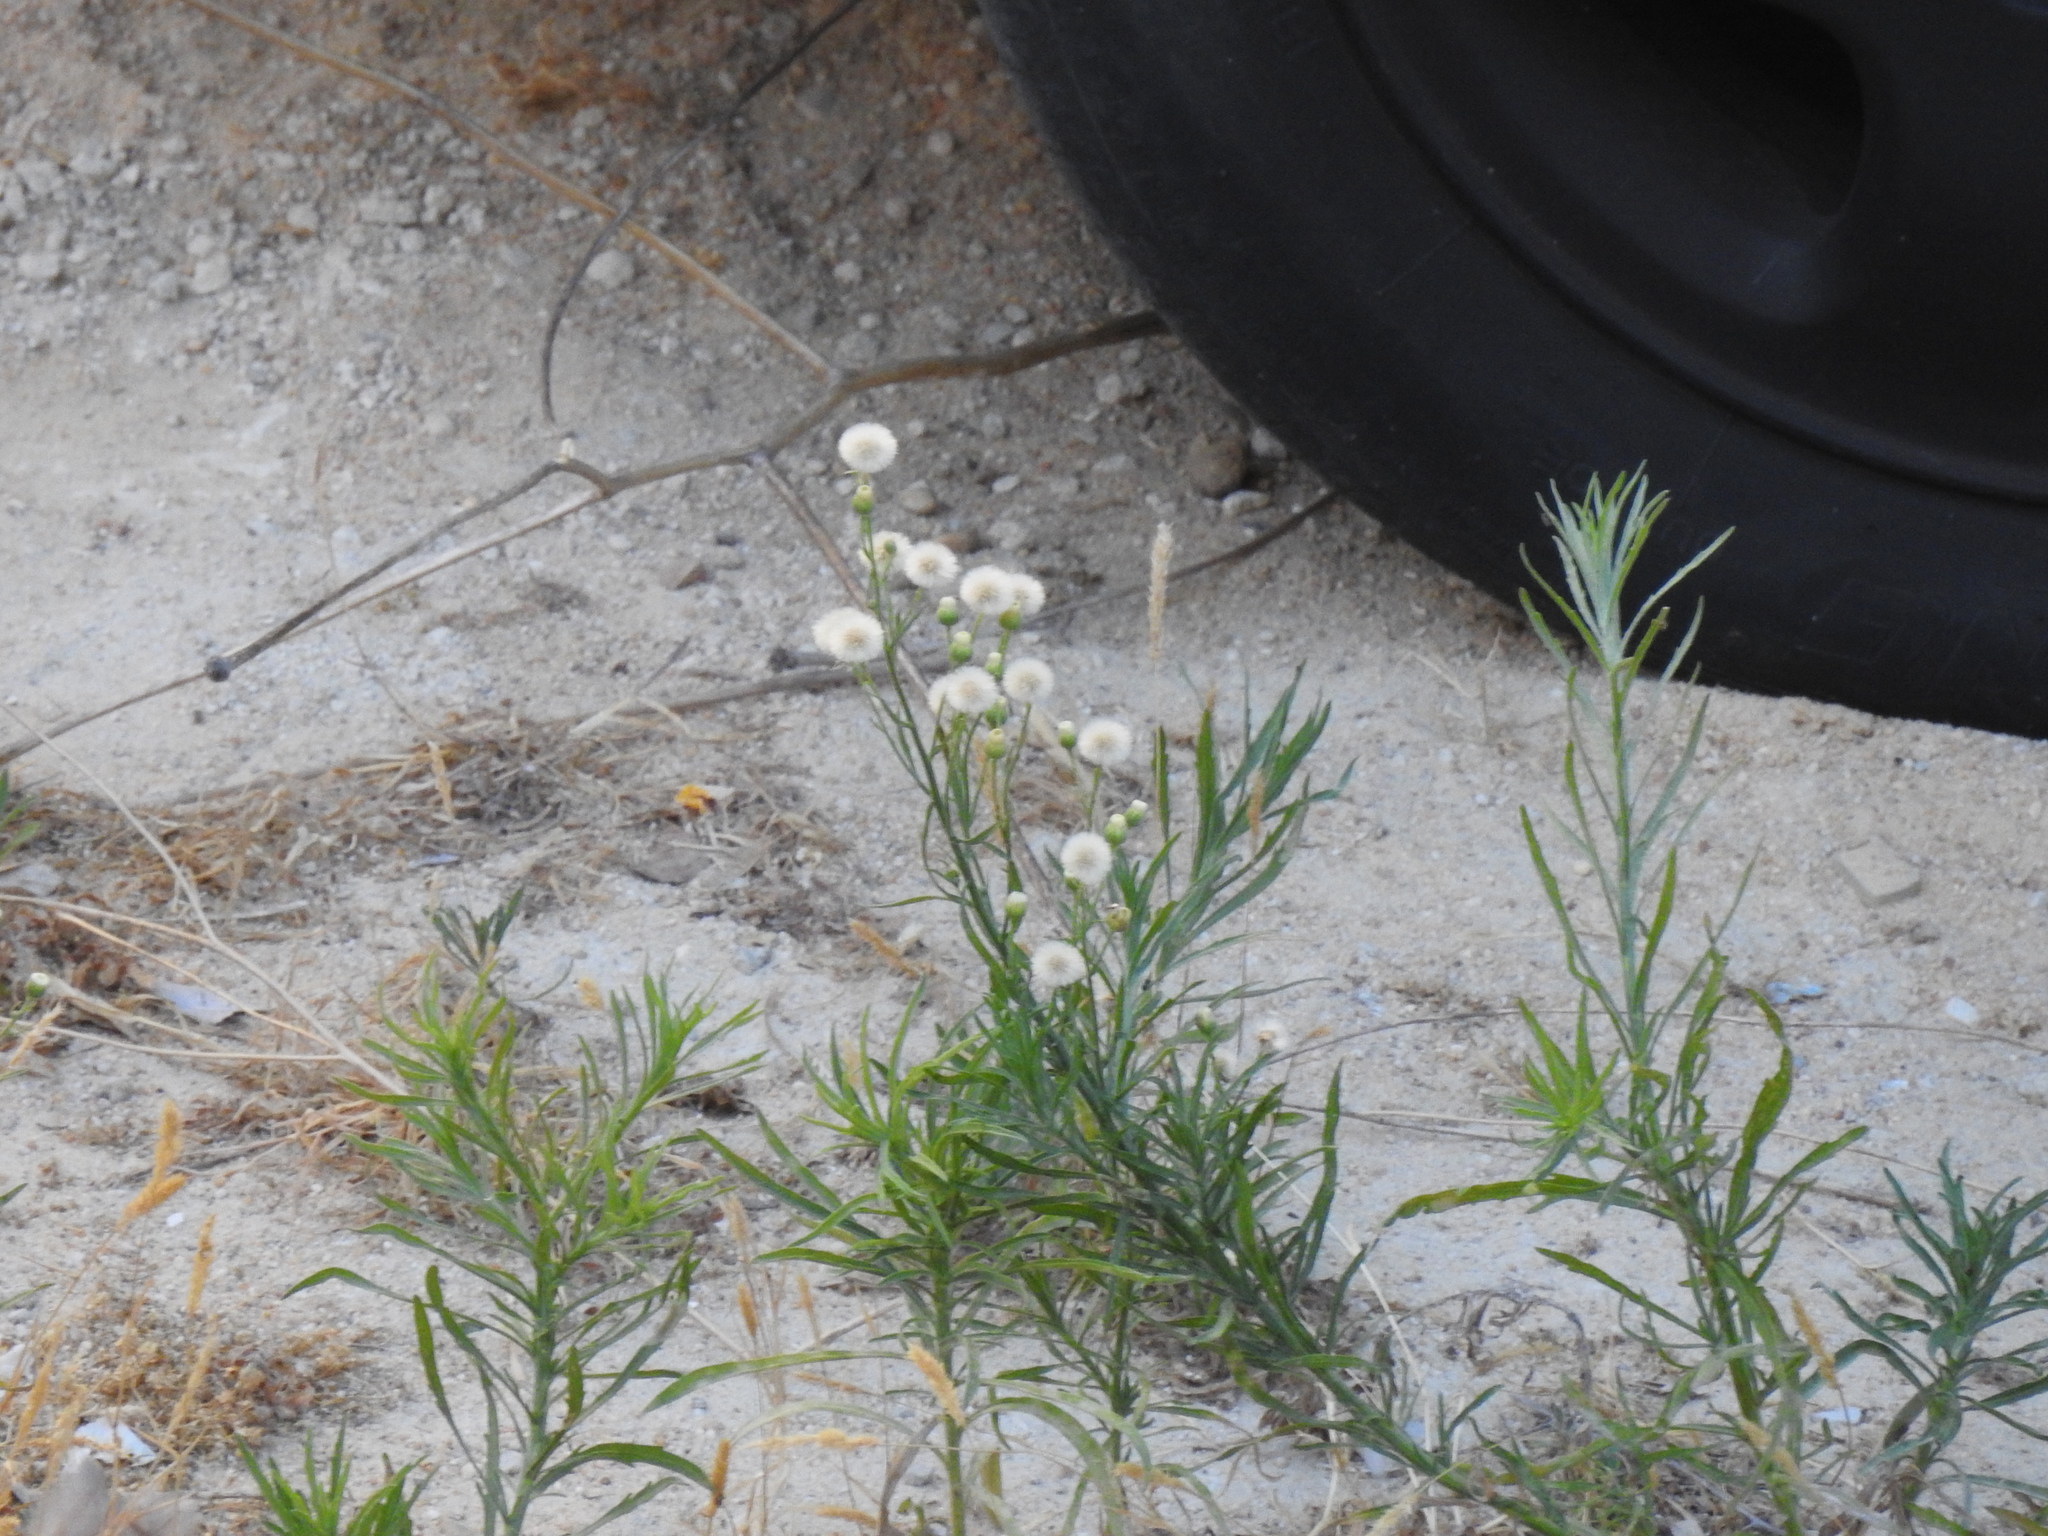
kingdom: Plantae
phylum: Tracheophyta
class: Magnoliopsida
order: Asterales
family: Asteraceae
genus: Erigeron
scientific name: Erigeron bonariensis
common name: Argentine fleabane
